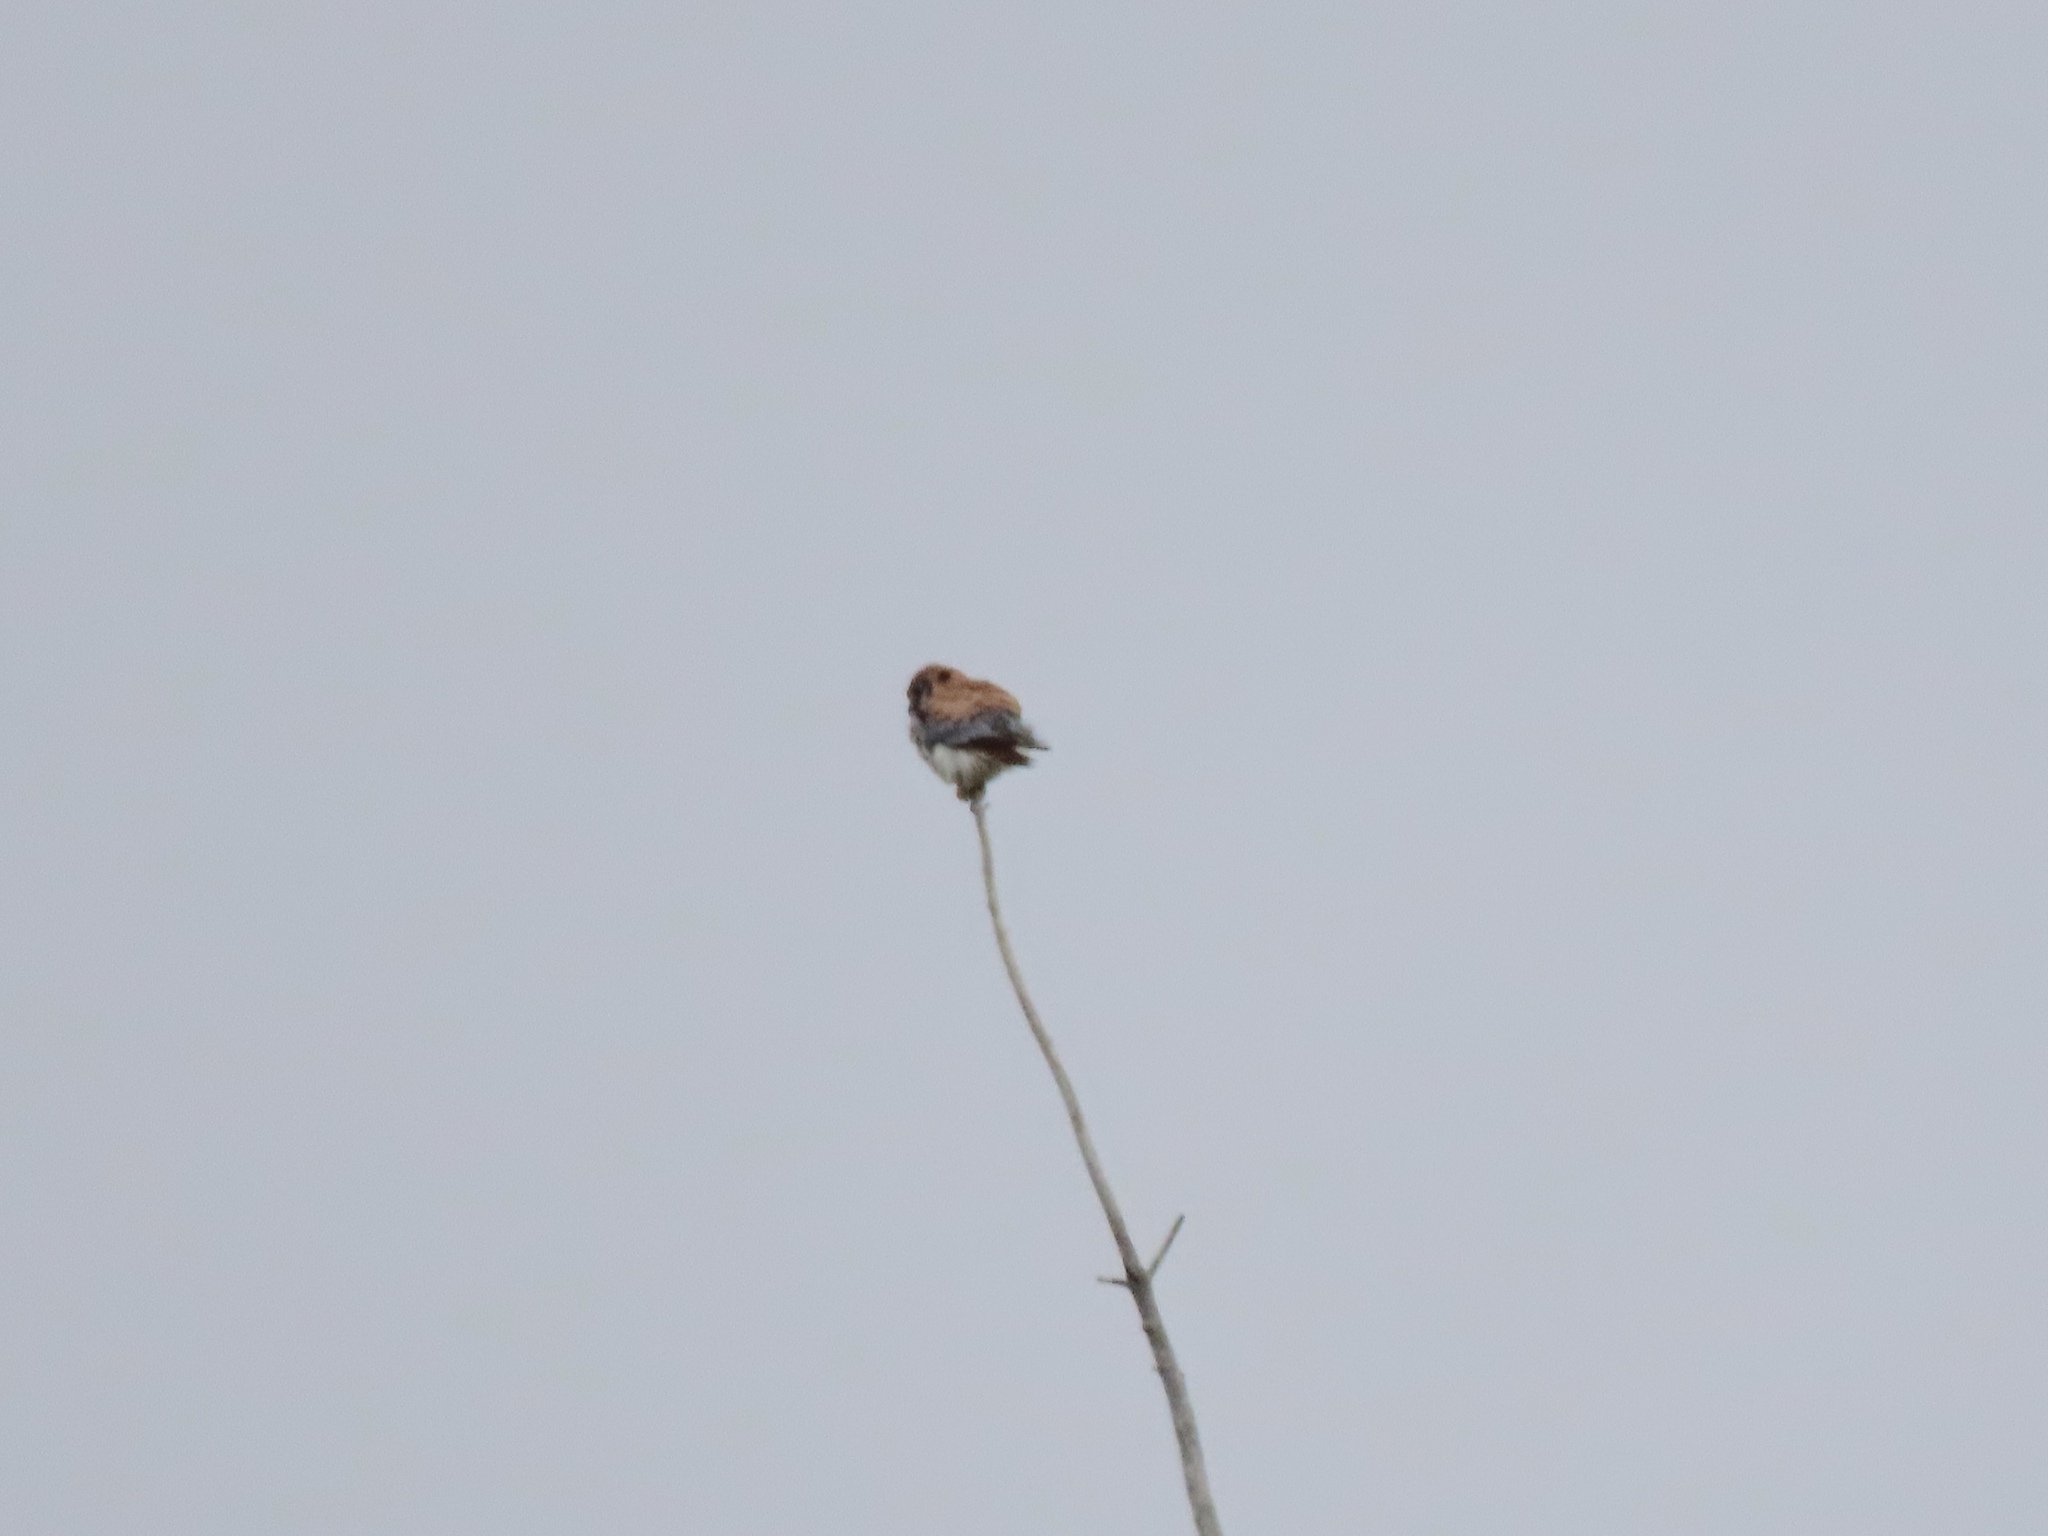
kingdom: Animalia
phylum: Chordata
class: Aves
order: Falconiformes
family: Falconidae
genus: Falco
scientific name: Falco sparverius
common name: American kestrel
